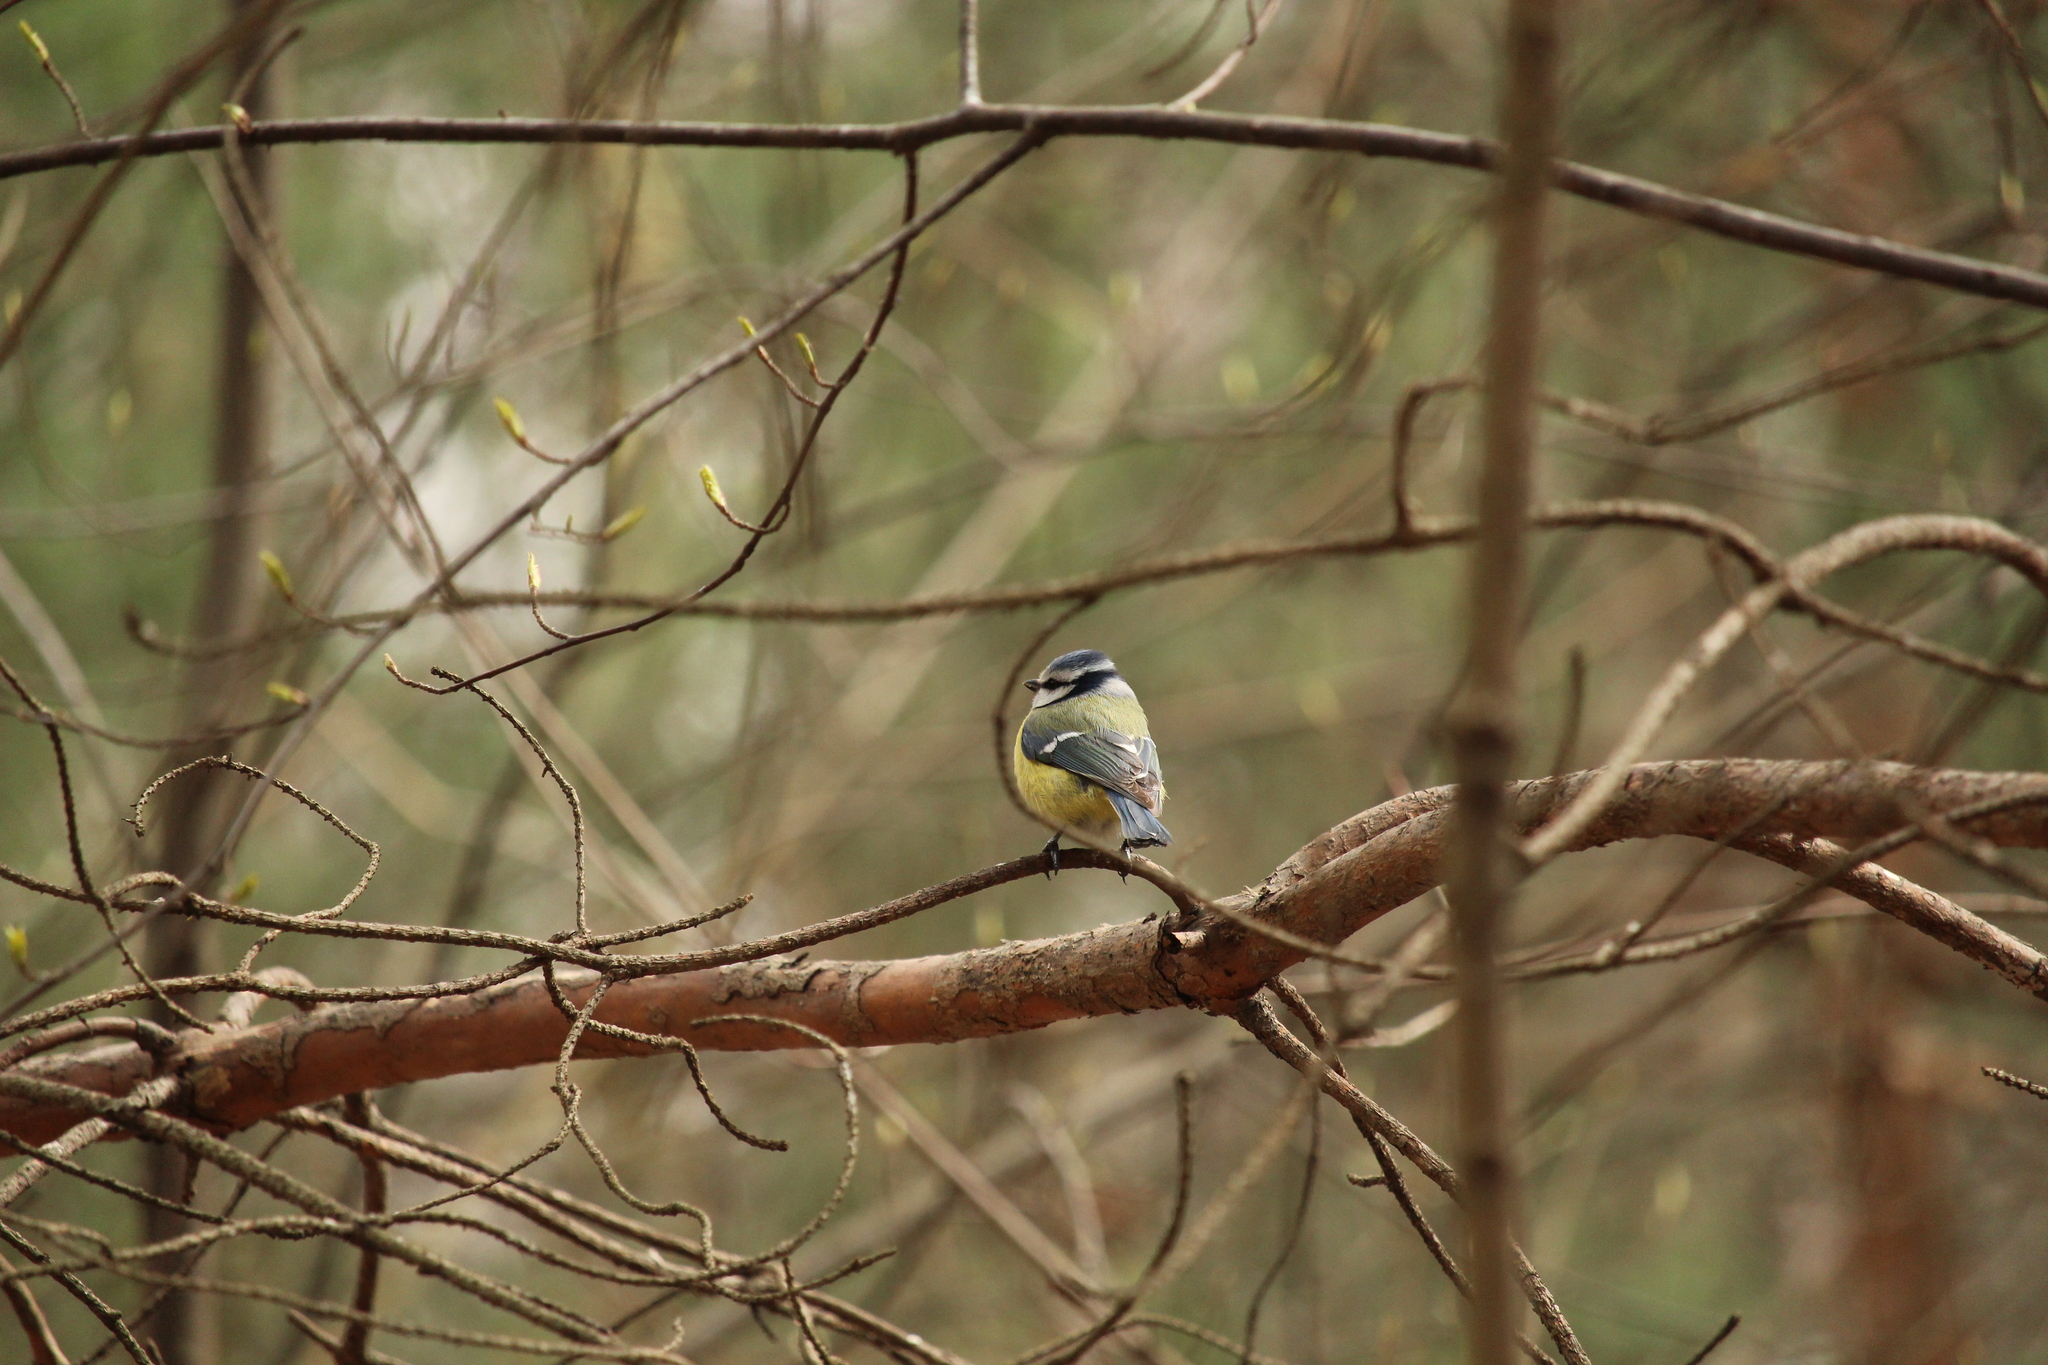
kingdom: Animalia
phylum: Chordata
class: Aves
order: Passeriformes
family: Paridae
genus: Cyanistes
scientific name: Cyanistes caeruleus
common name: Eurasian blue tit
